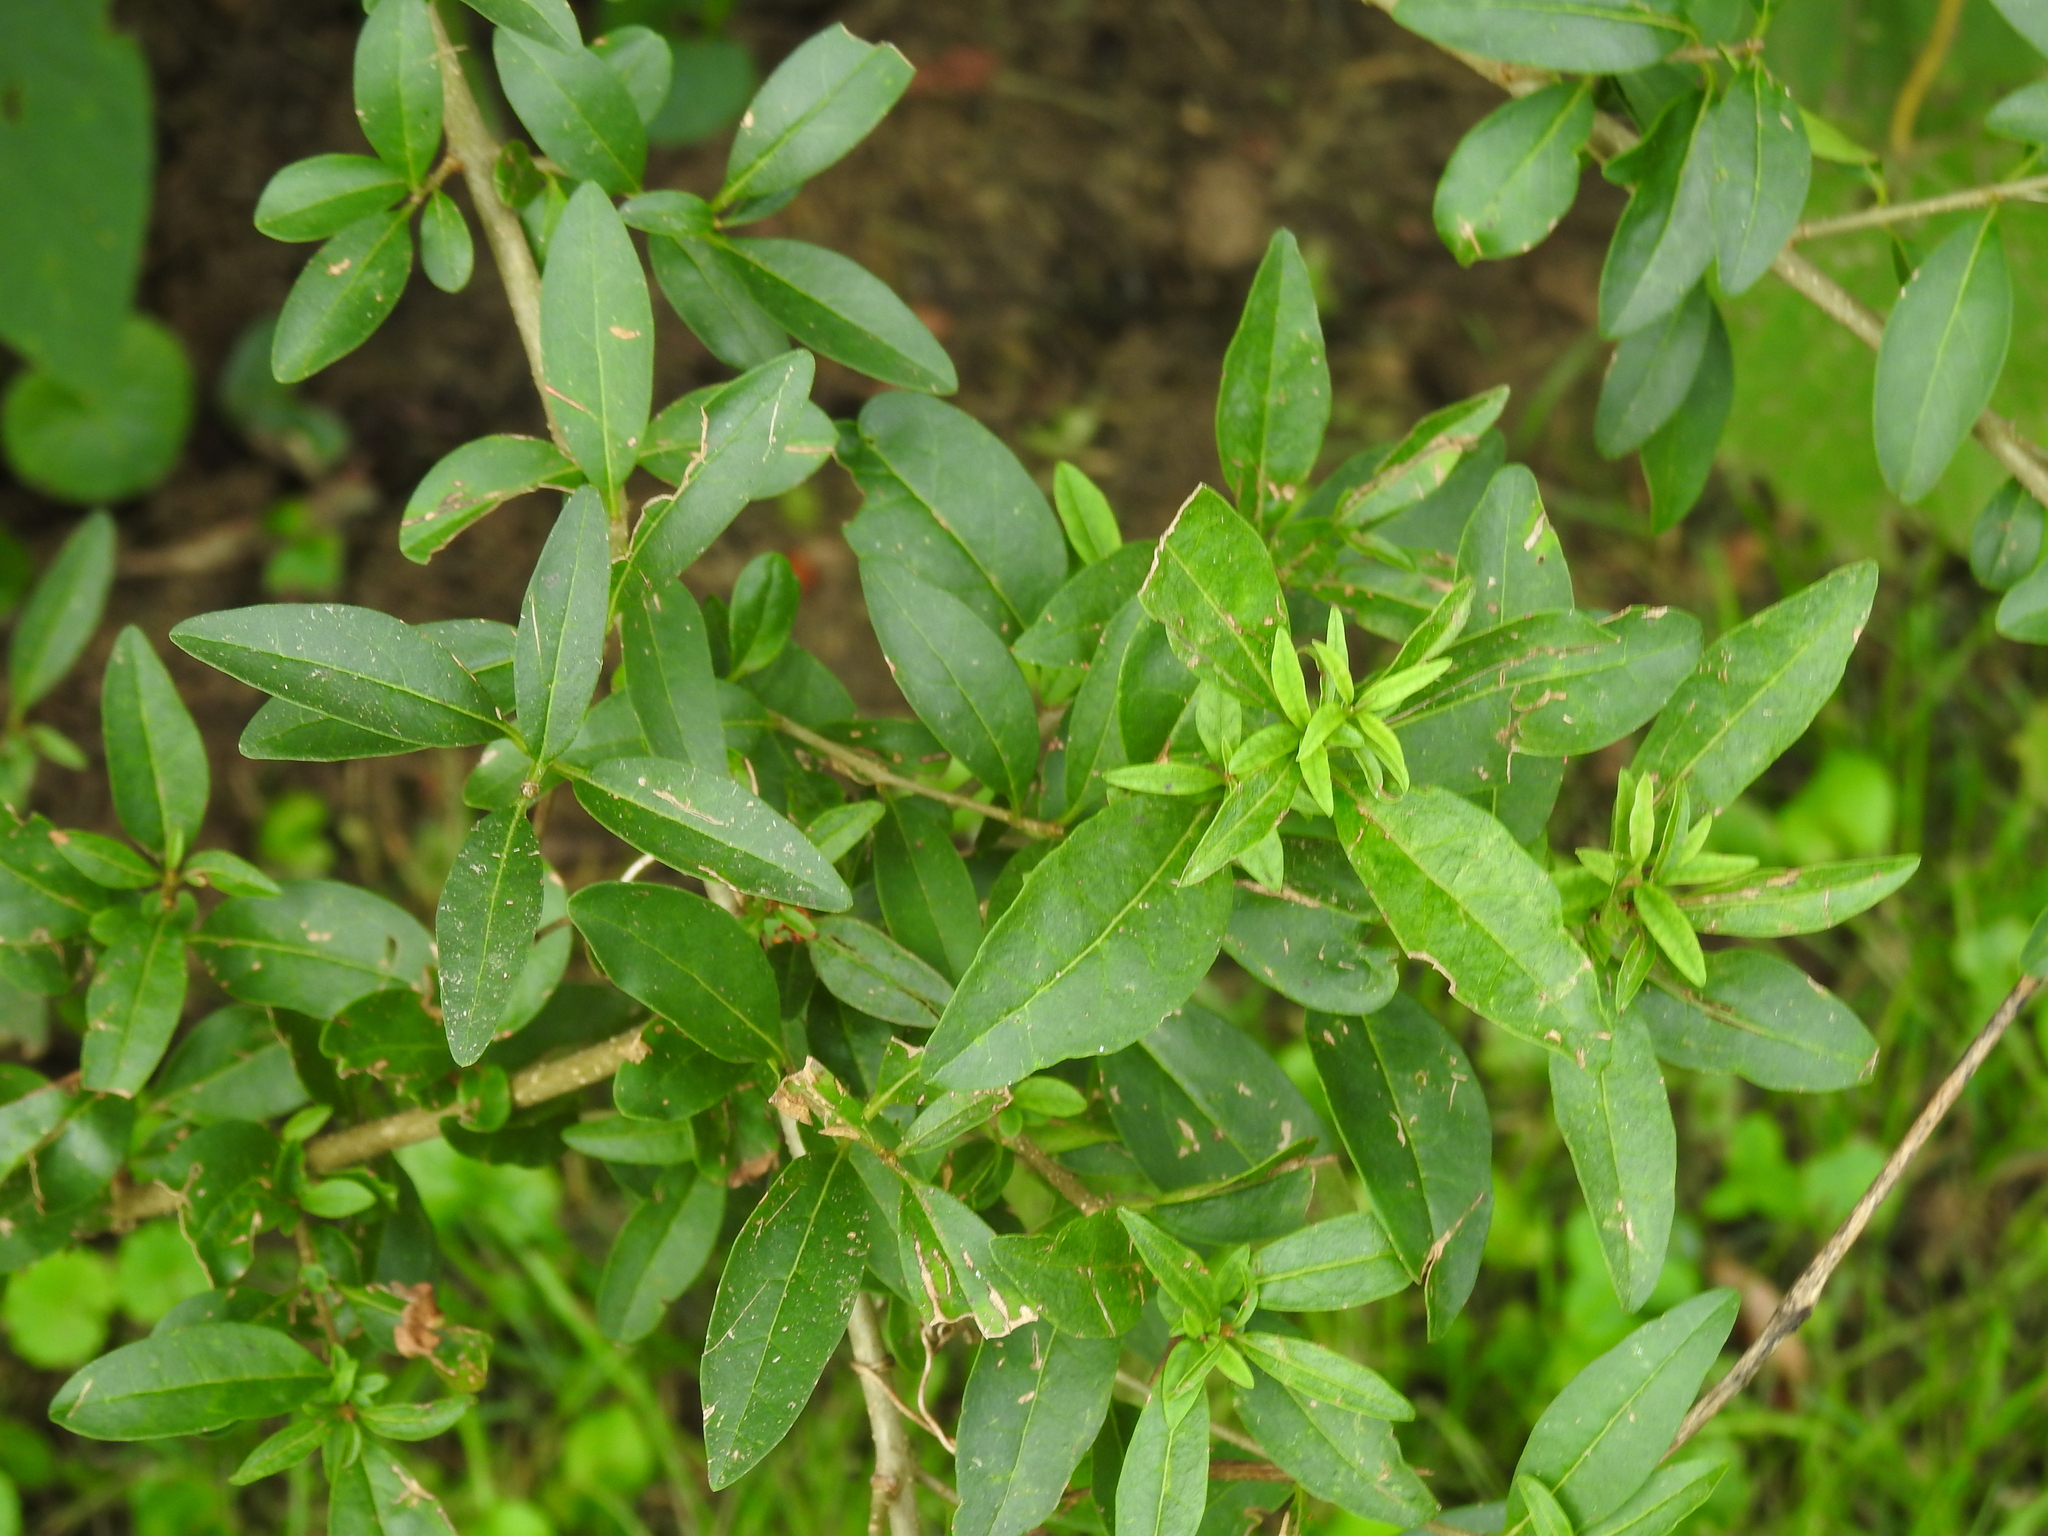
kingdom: Plantae
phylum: Tracheophyta
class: Magnoliopsida
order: Lamiales
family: Oleaceae
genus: Ligustrum
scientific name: Ligustrum vulgare
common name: Wild privet
